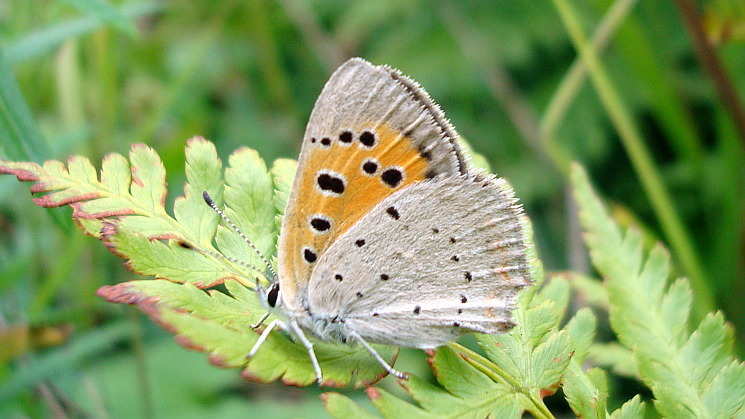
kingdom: Animalia
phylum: Arthropoda
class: Insecta
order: Lepidoptera
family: Lycaenidae
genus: Lycaena
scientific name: Lycaena phlaeas
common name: Small copper
